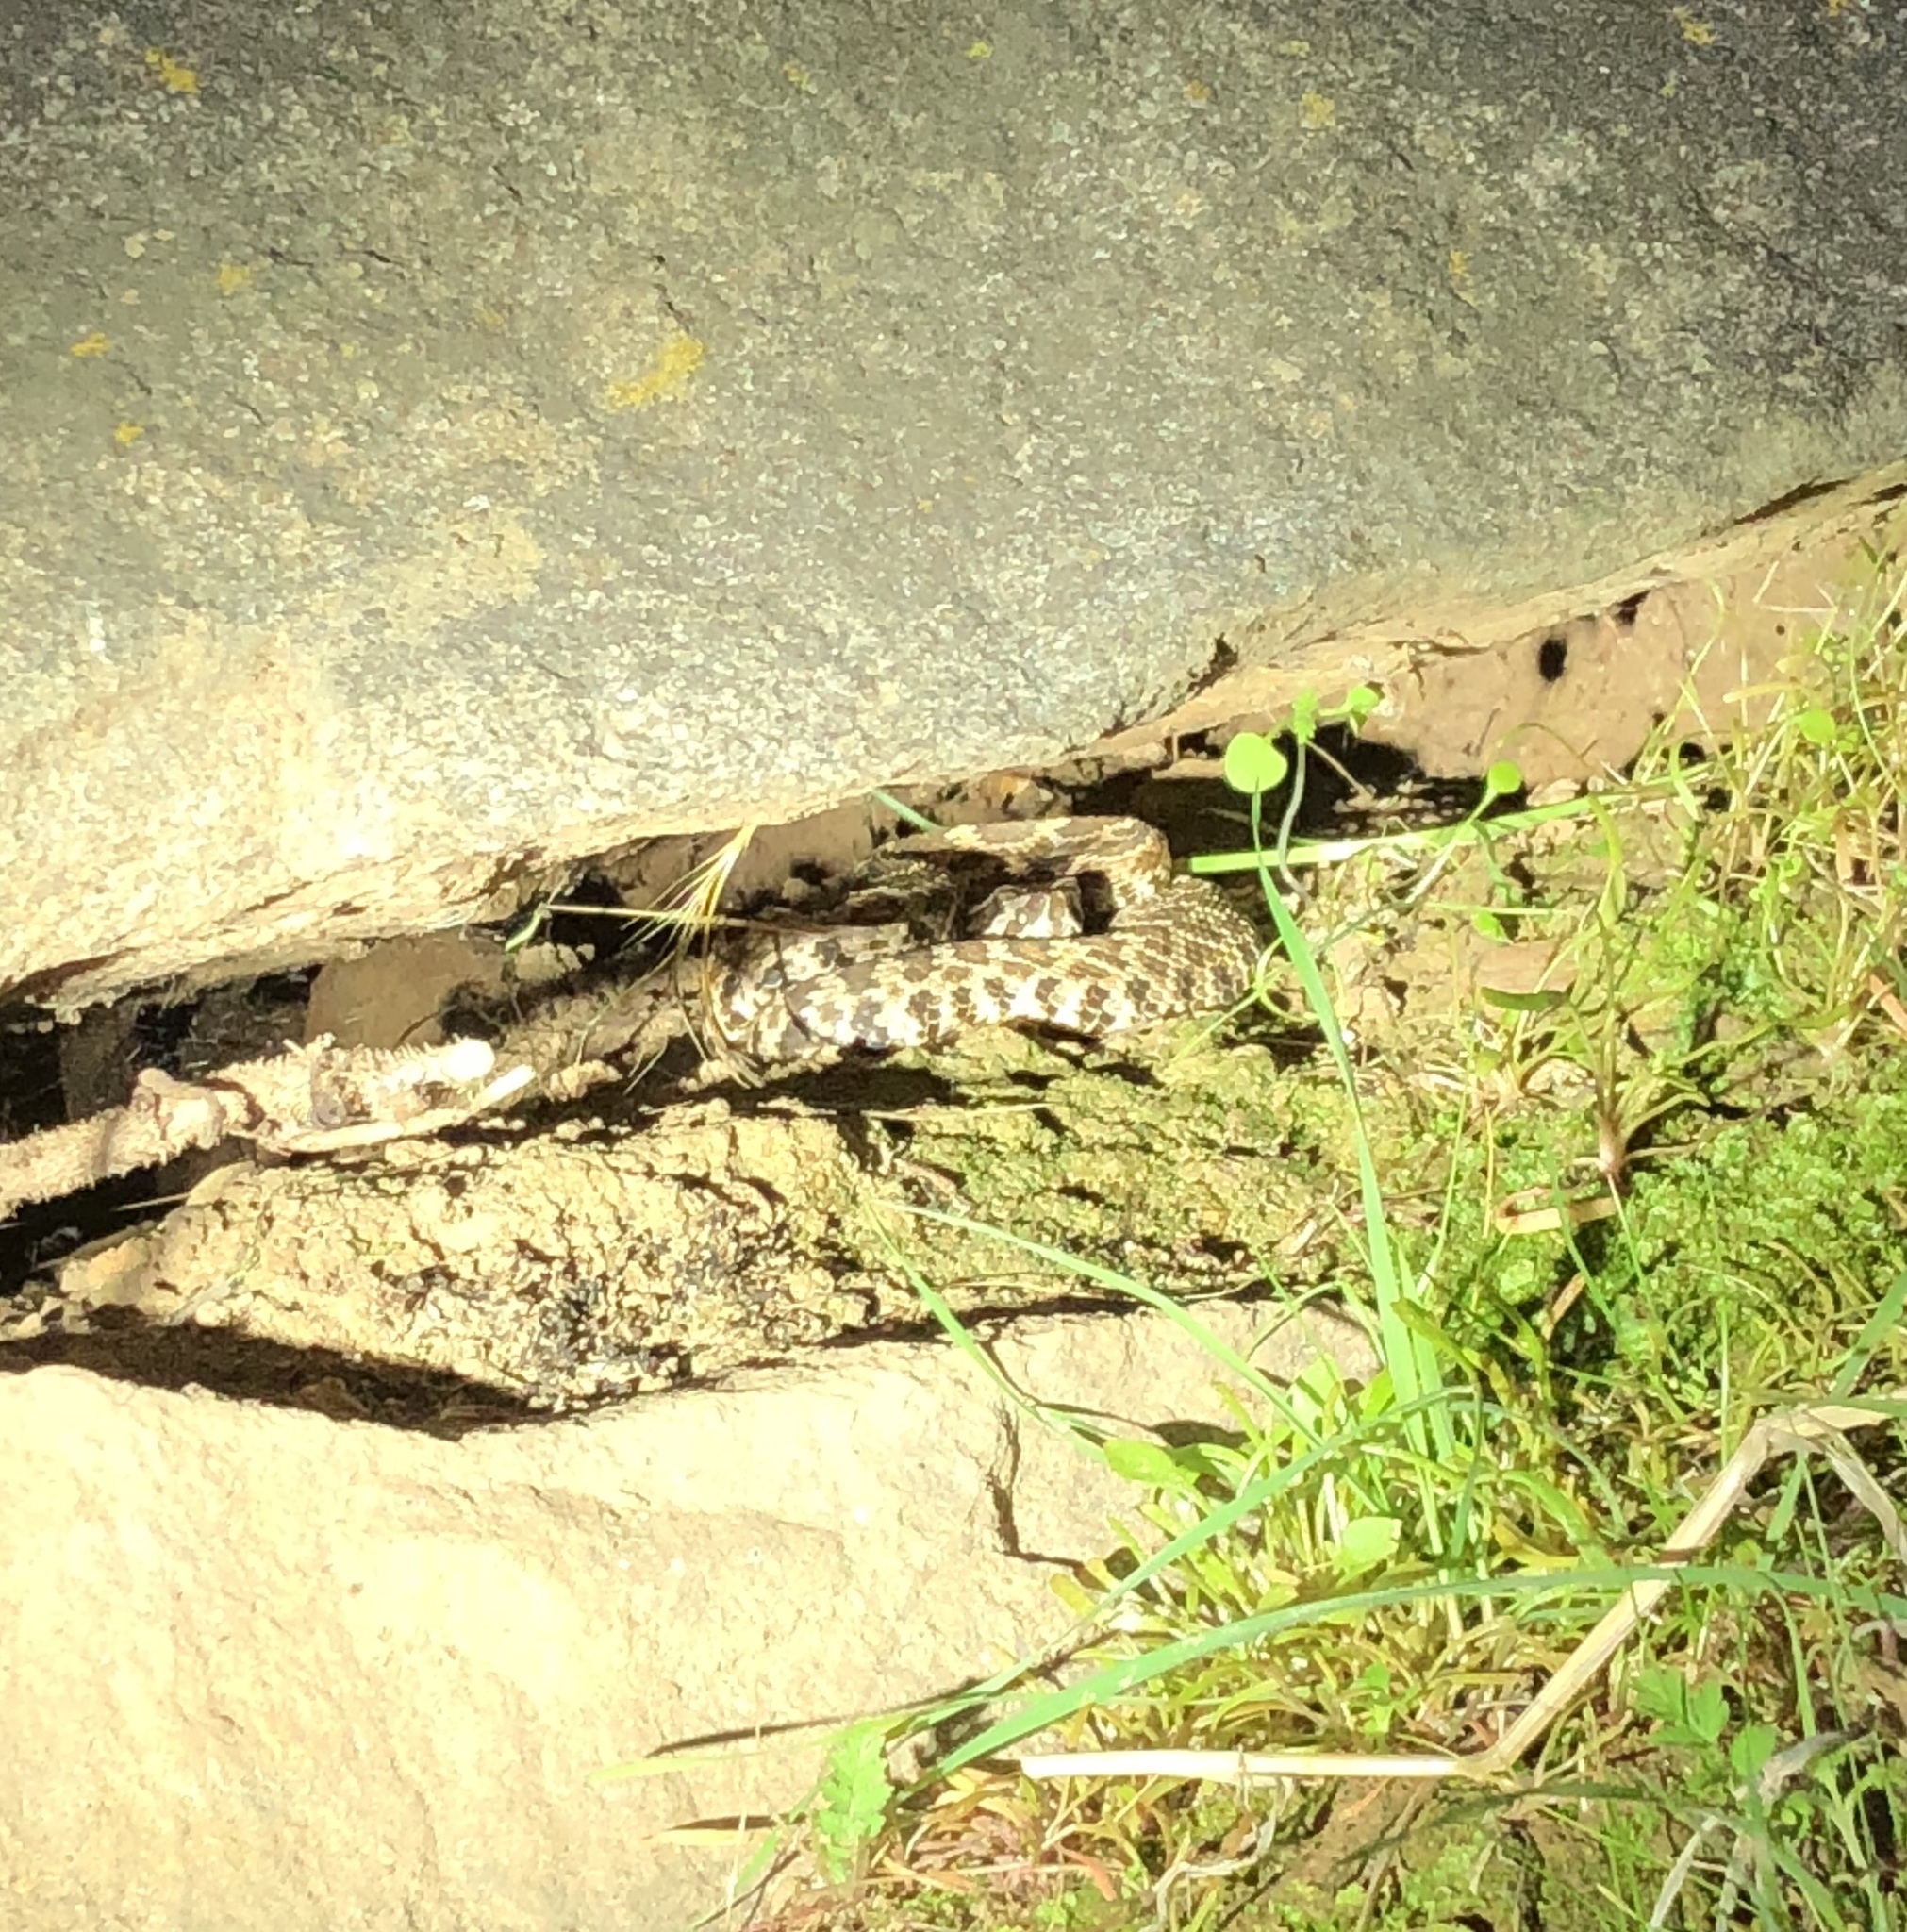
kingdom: Animalia
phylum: Chordata
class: Squamata
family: Viperidae
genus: Crotalus
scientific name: Crotalus oreganus
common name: Abyssus
